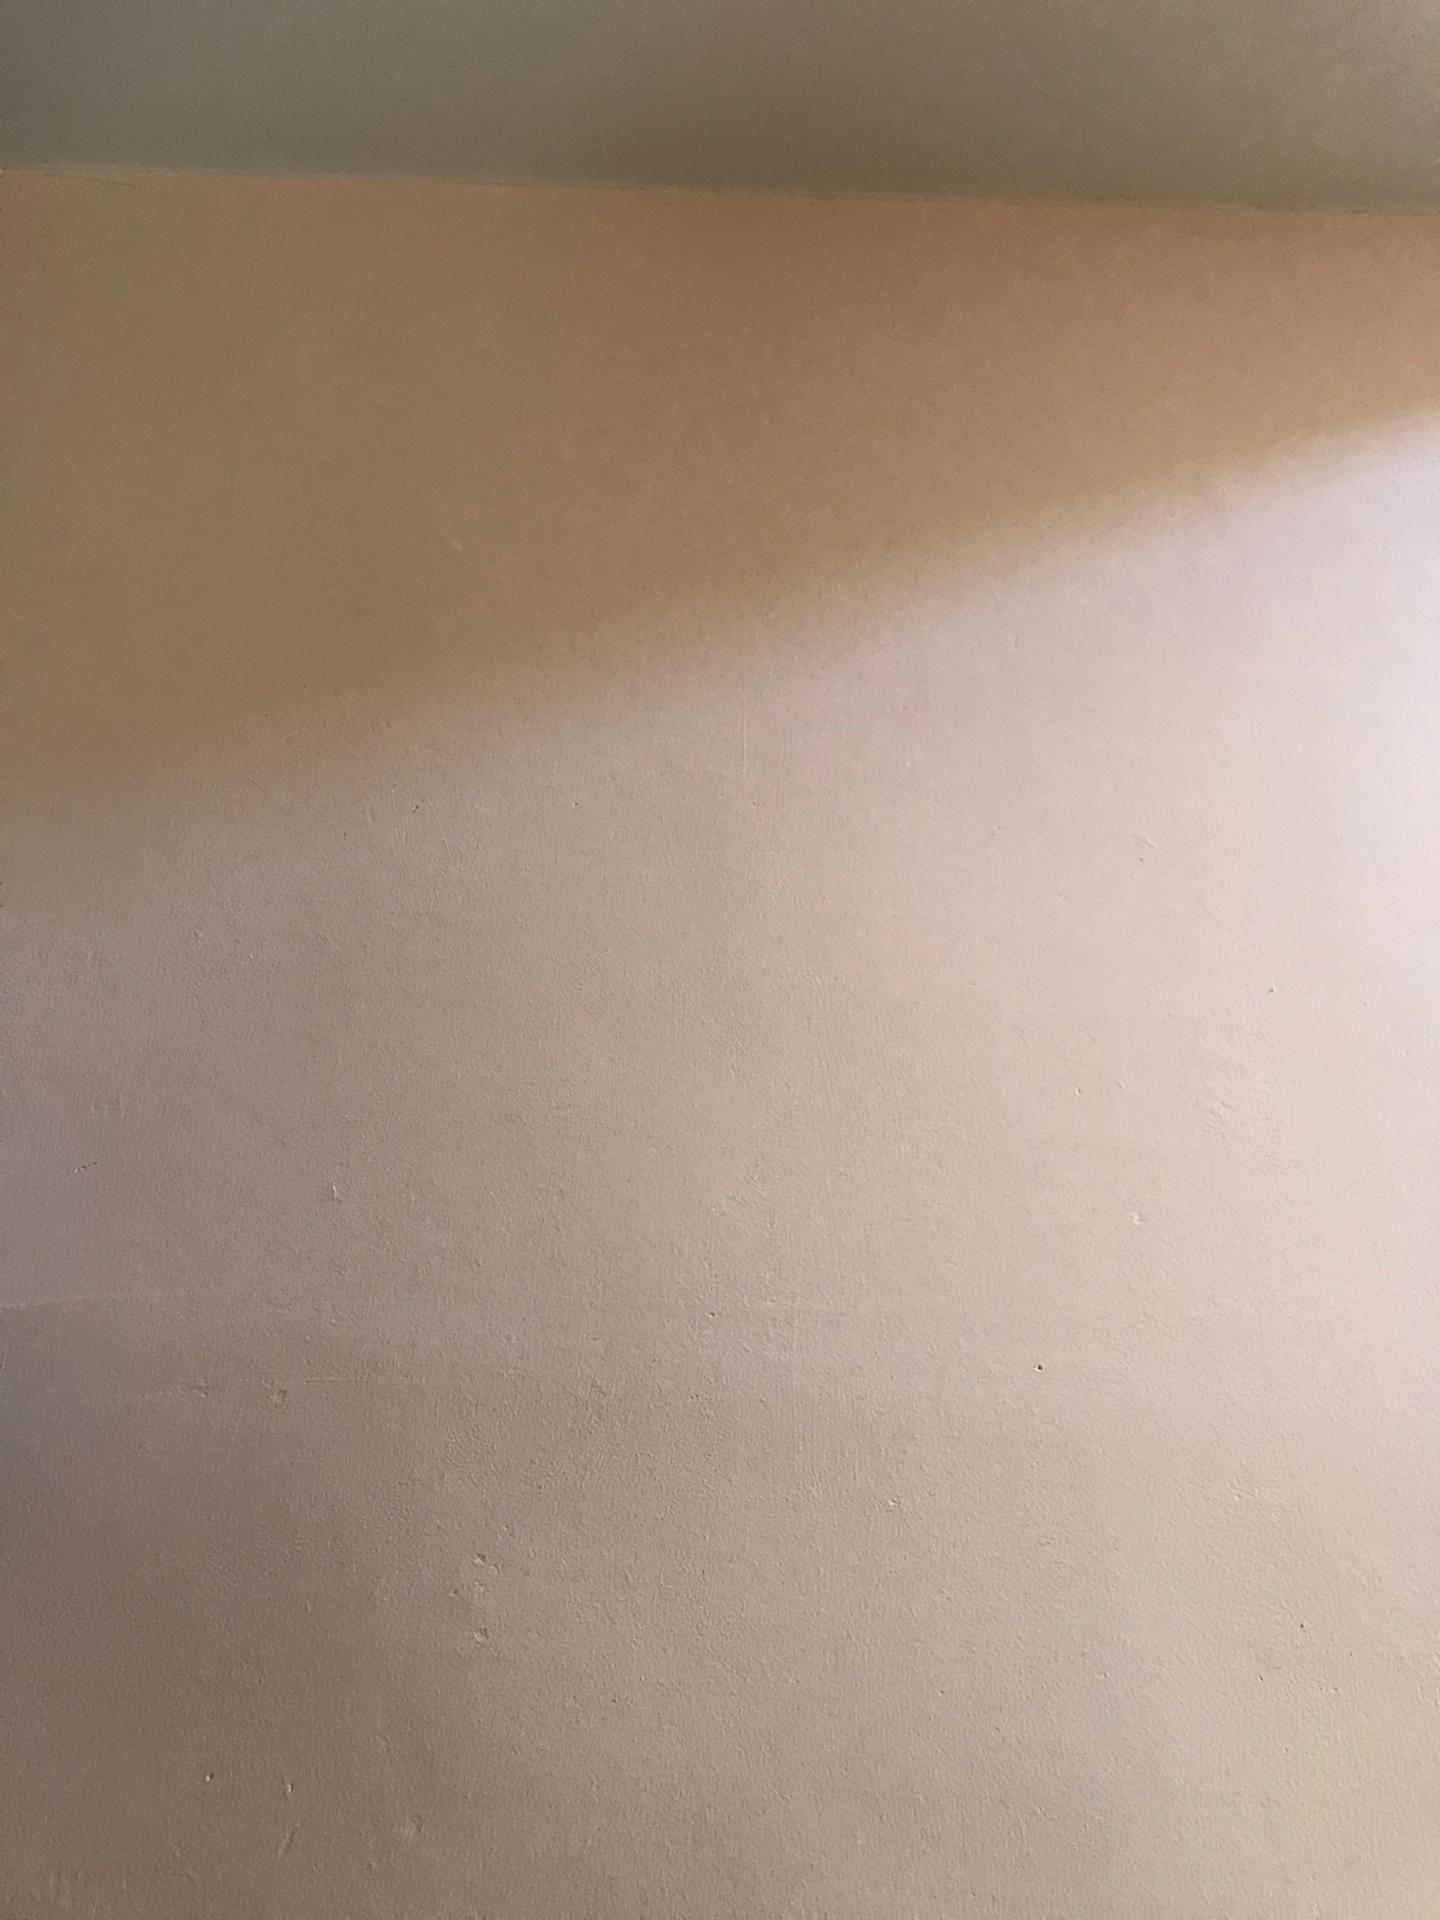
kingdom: Animalia
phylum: Arthropoda
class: Insecta
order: Diptera
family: Syrphidae
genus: Volucella
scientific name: Volucella zonaria
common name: Hornet hoverfly
